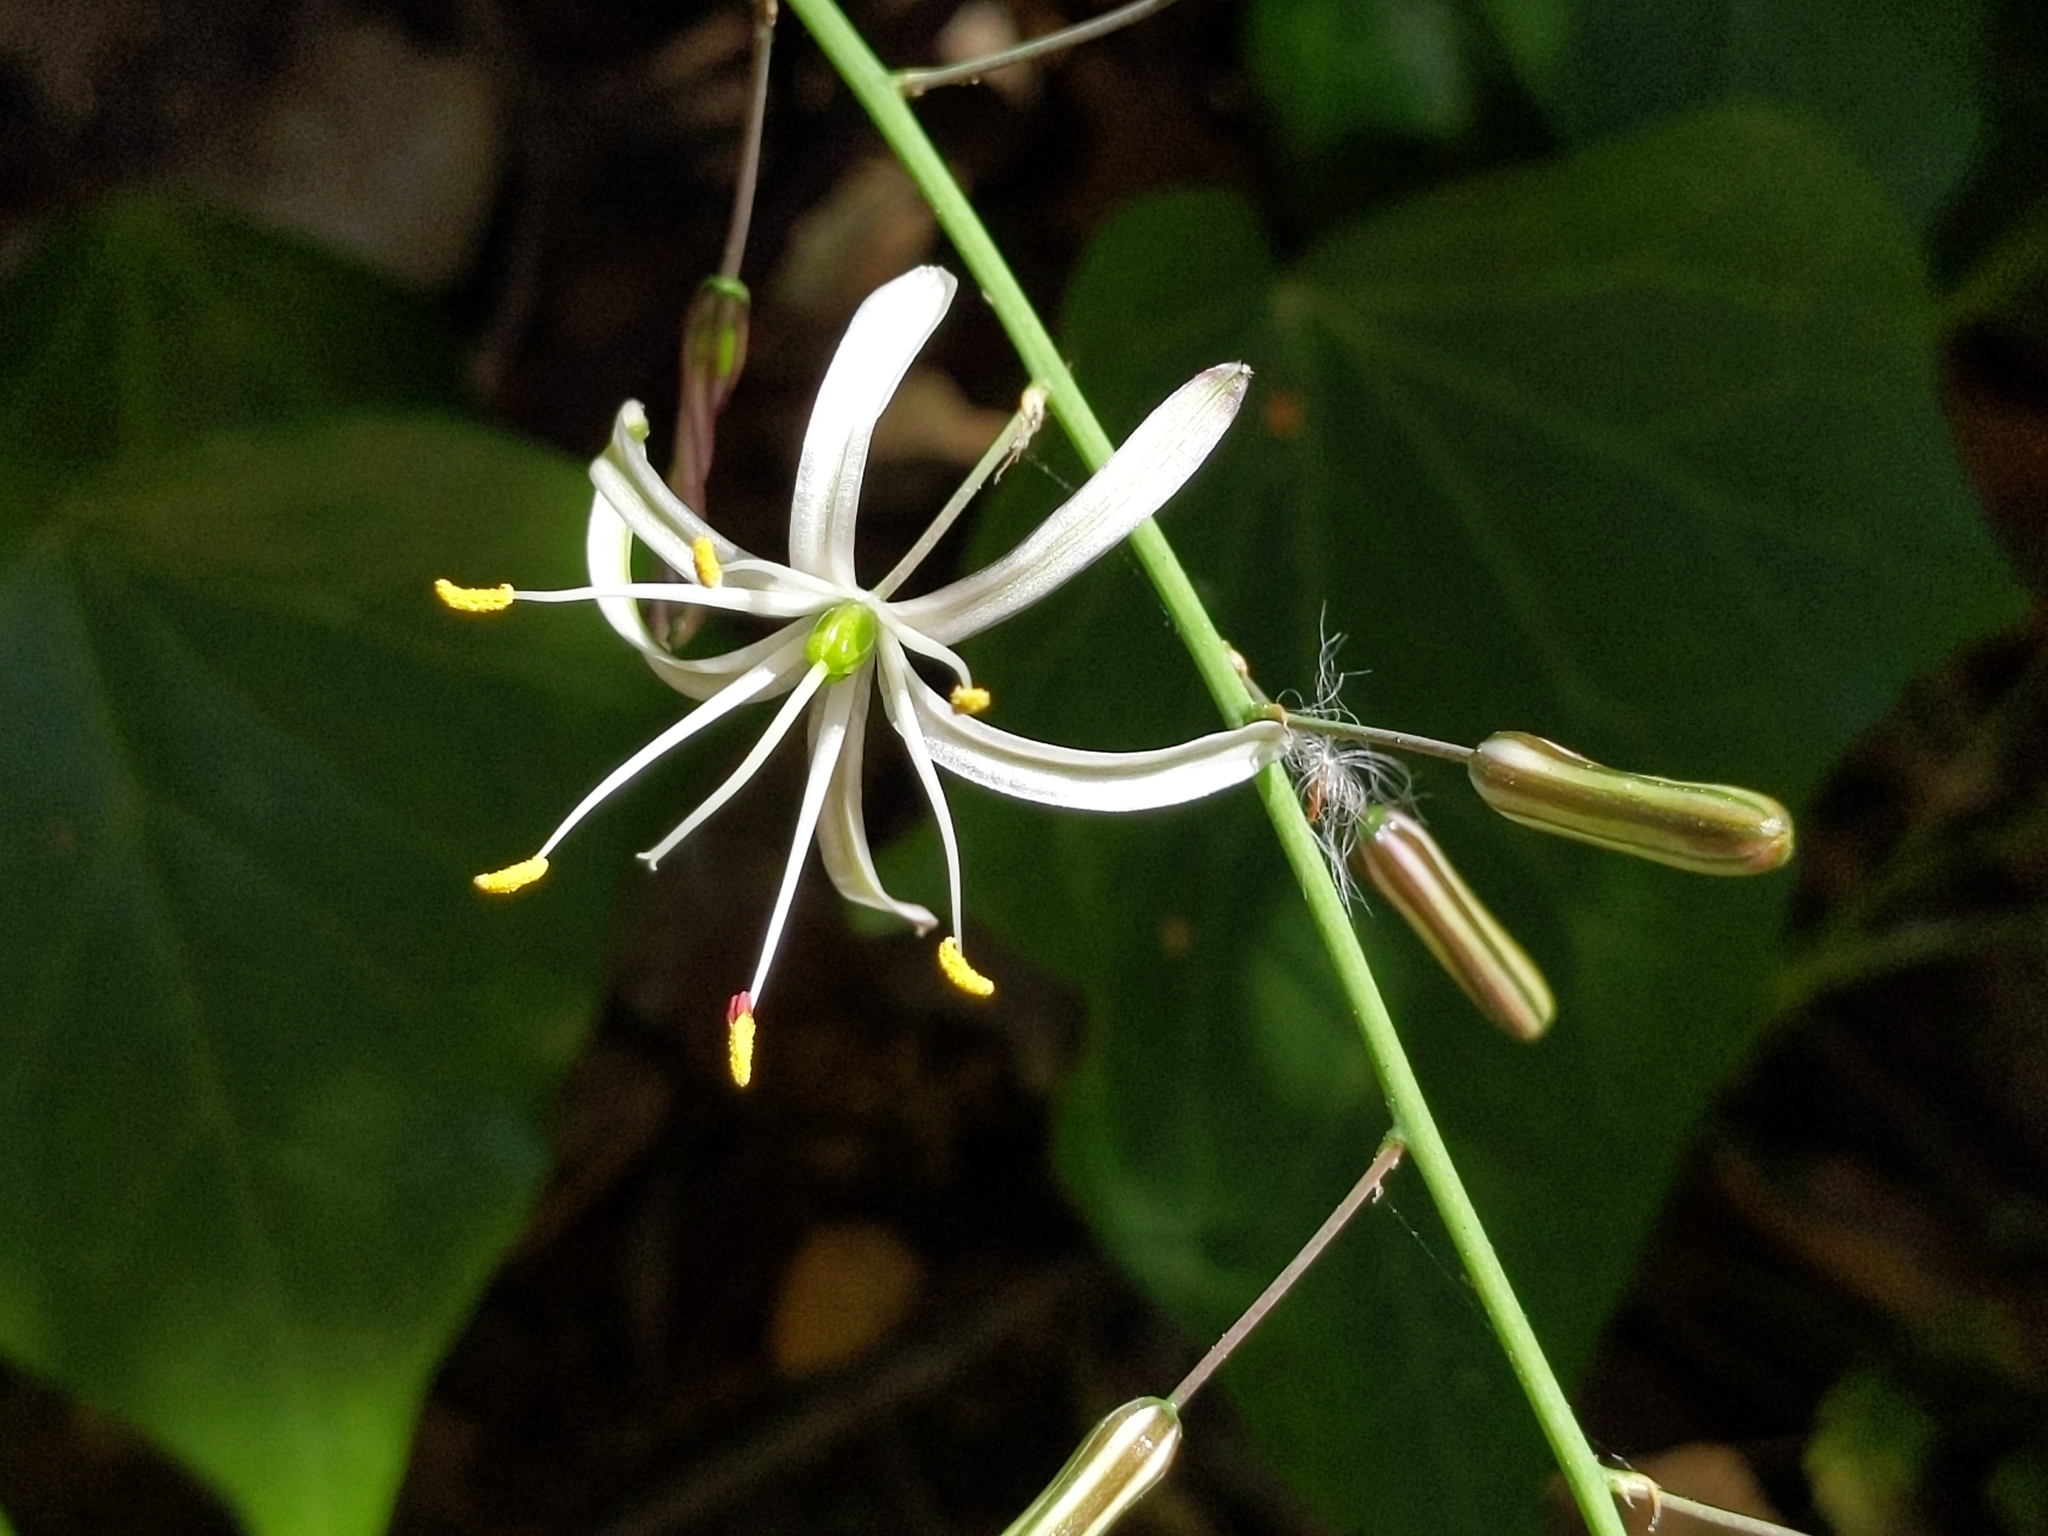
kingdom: Plantae
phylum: Tracheophyta
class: Liliopsida
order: Asparagales
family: Asparagaceae
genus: Chlorogalum
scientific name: Chlorogalum pomeridianum
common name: Amole
